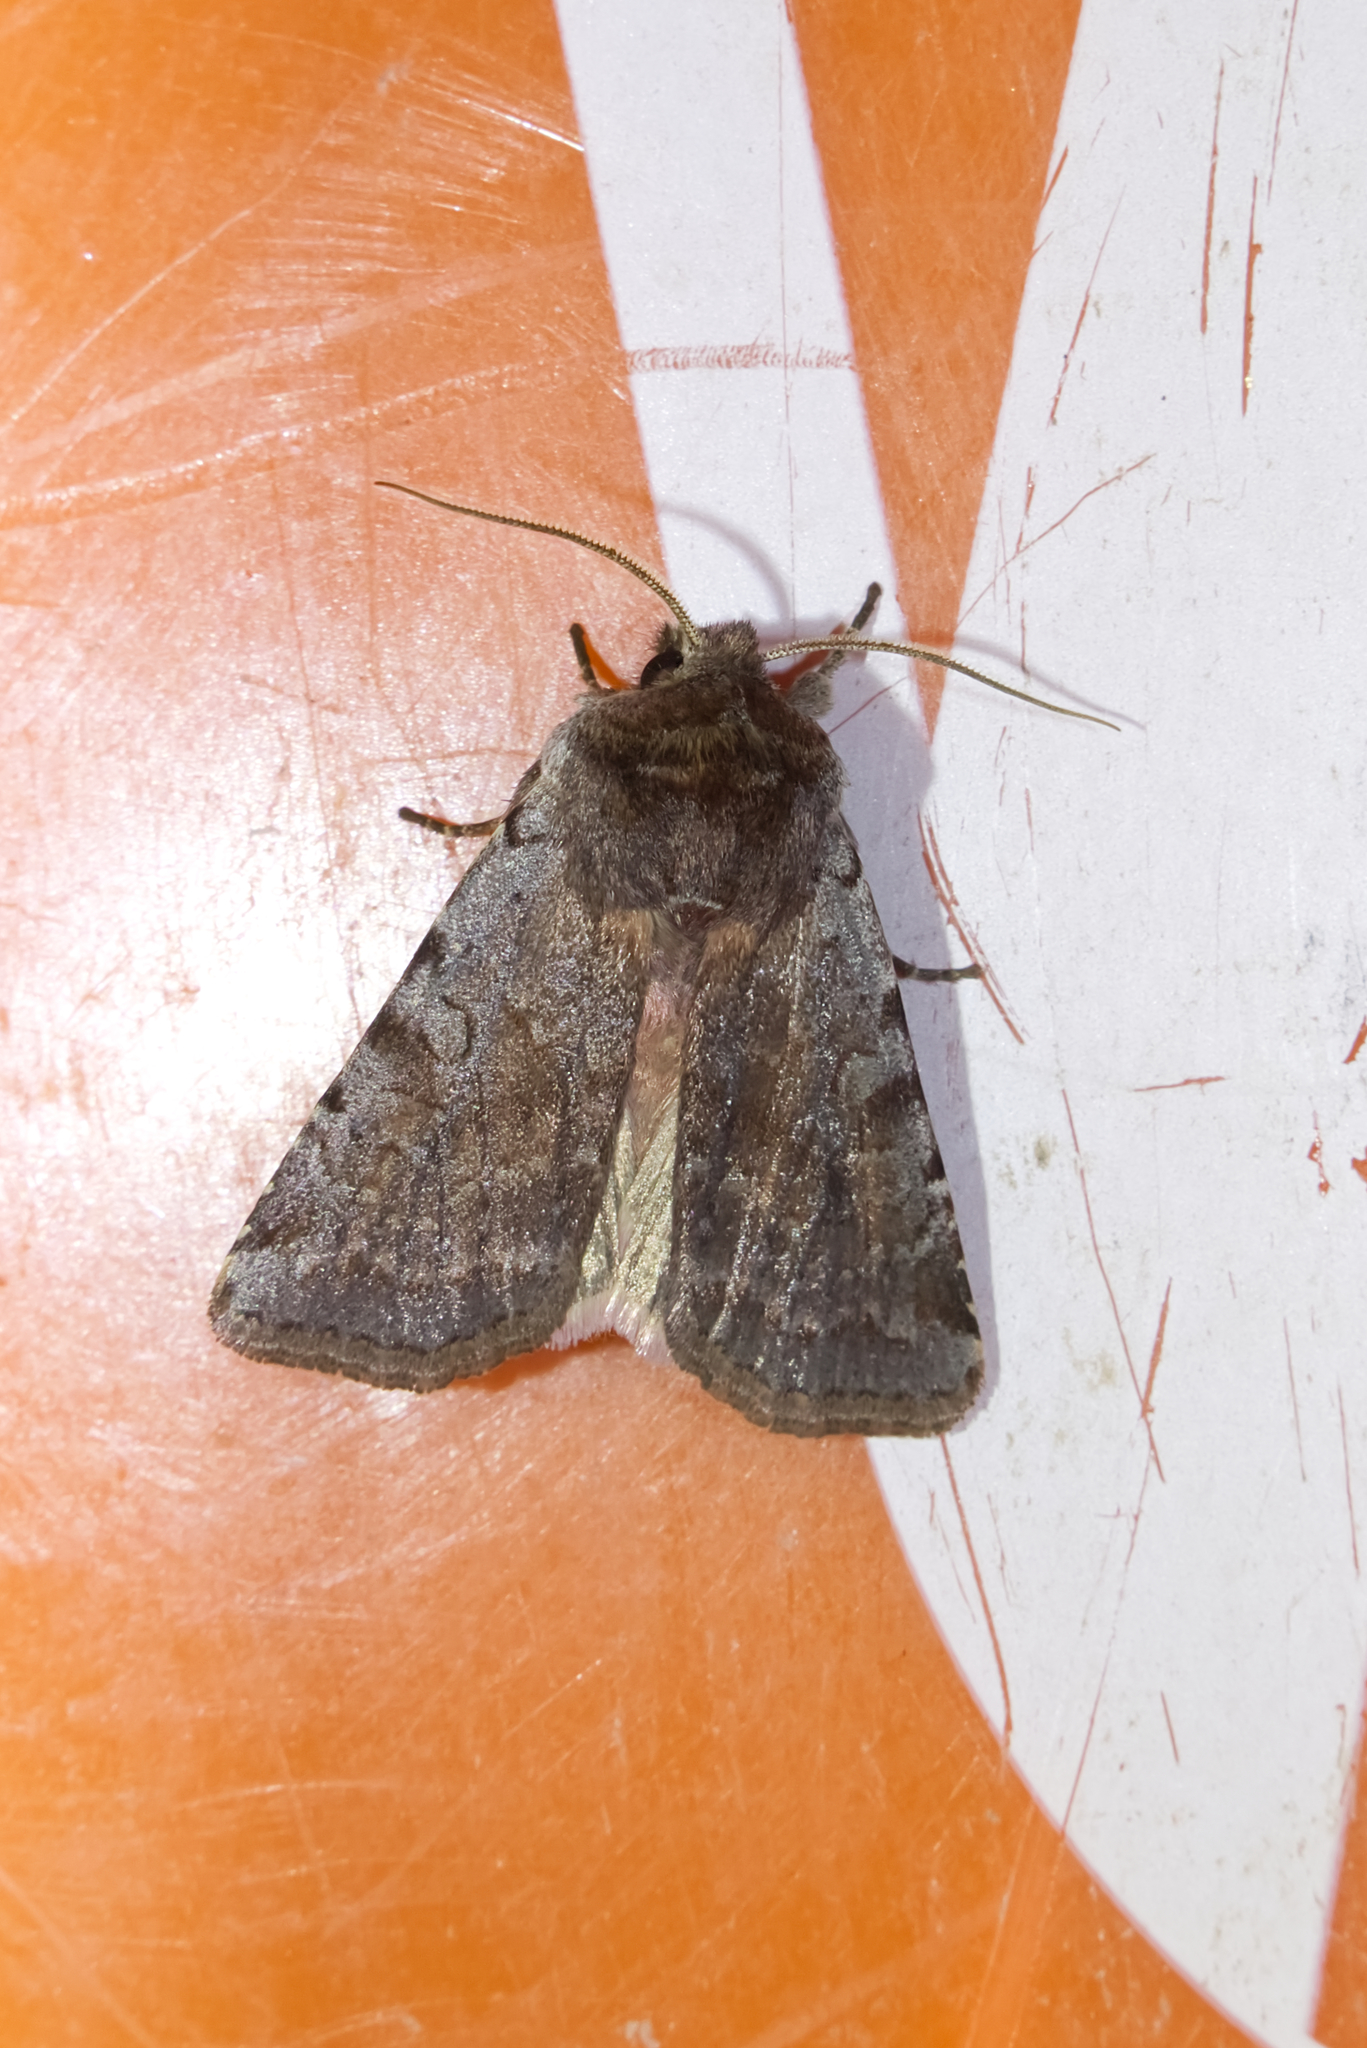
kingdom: Animalia
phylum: Arthropoda
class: Insecta
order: Lepidoptera
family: Noctuidae
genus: Cerastis
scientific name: Cerastis rubricosa
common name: Red chestnut
